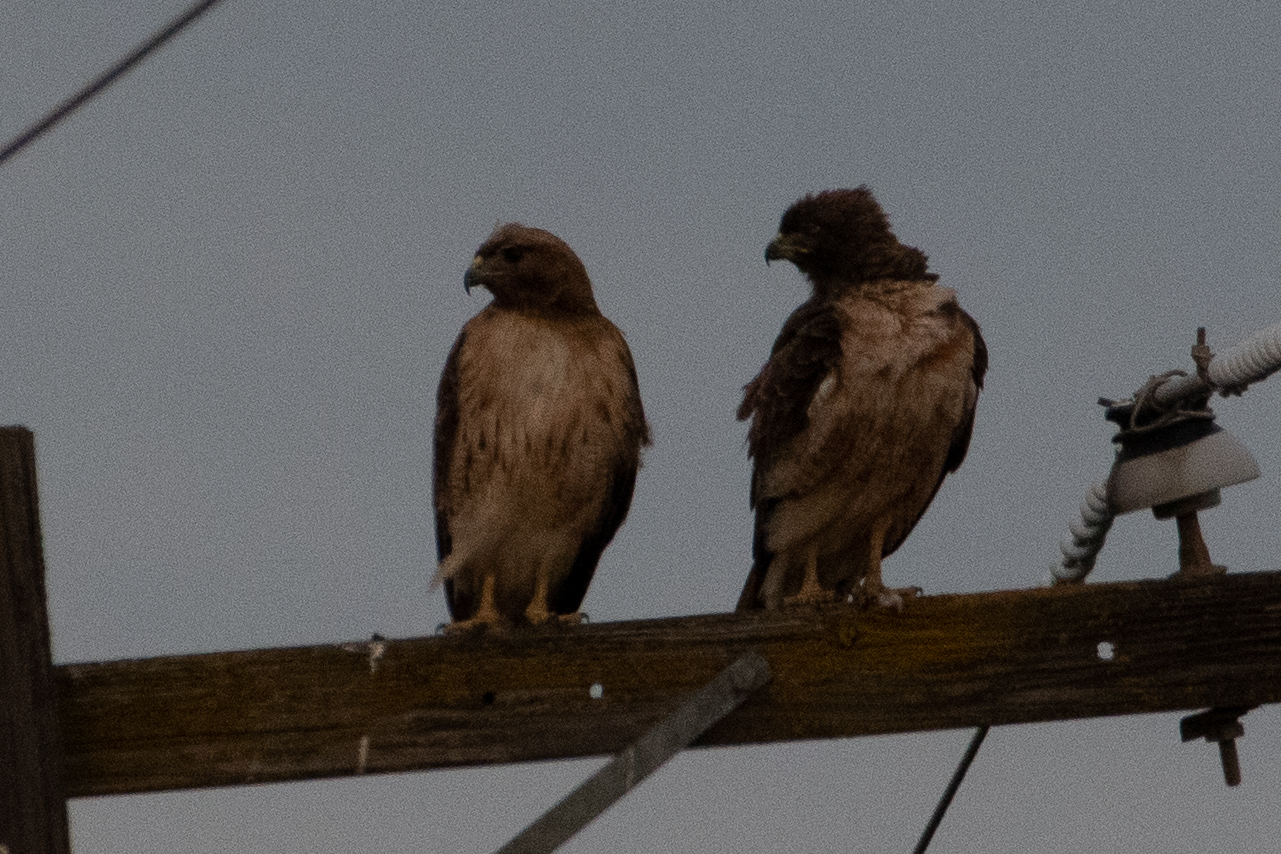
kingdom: Animalia
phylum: Chordata
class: Aves
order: Accipitriformes
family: Accipitridae
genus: Buteo
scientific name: Buteo jamaicensis
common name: Red-tailed hawk
